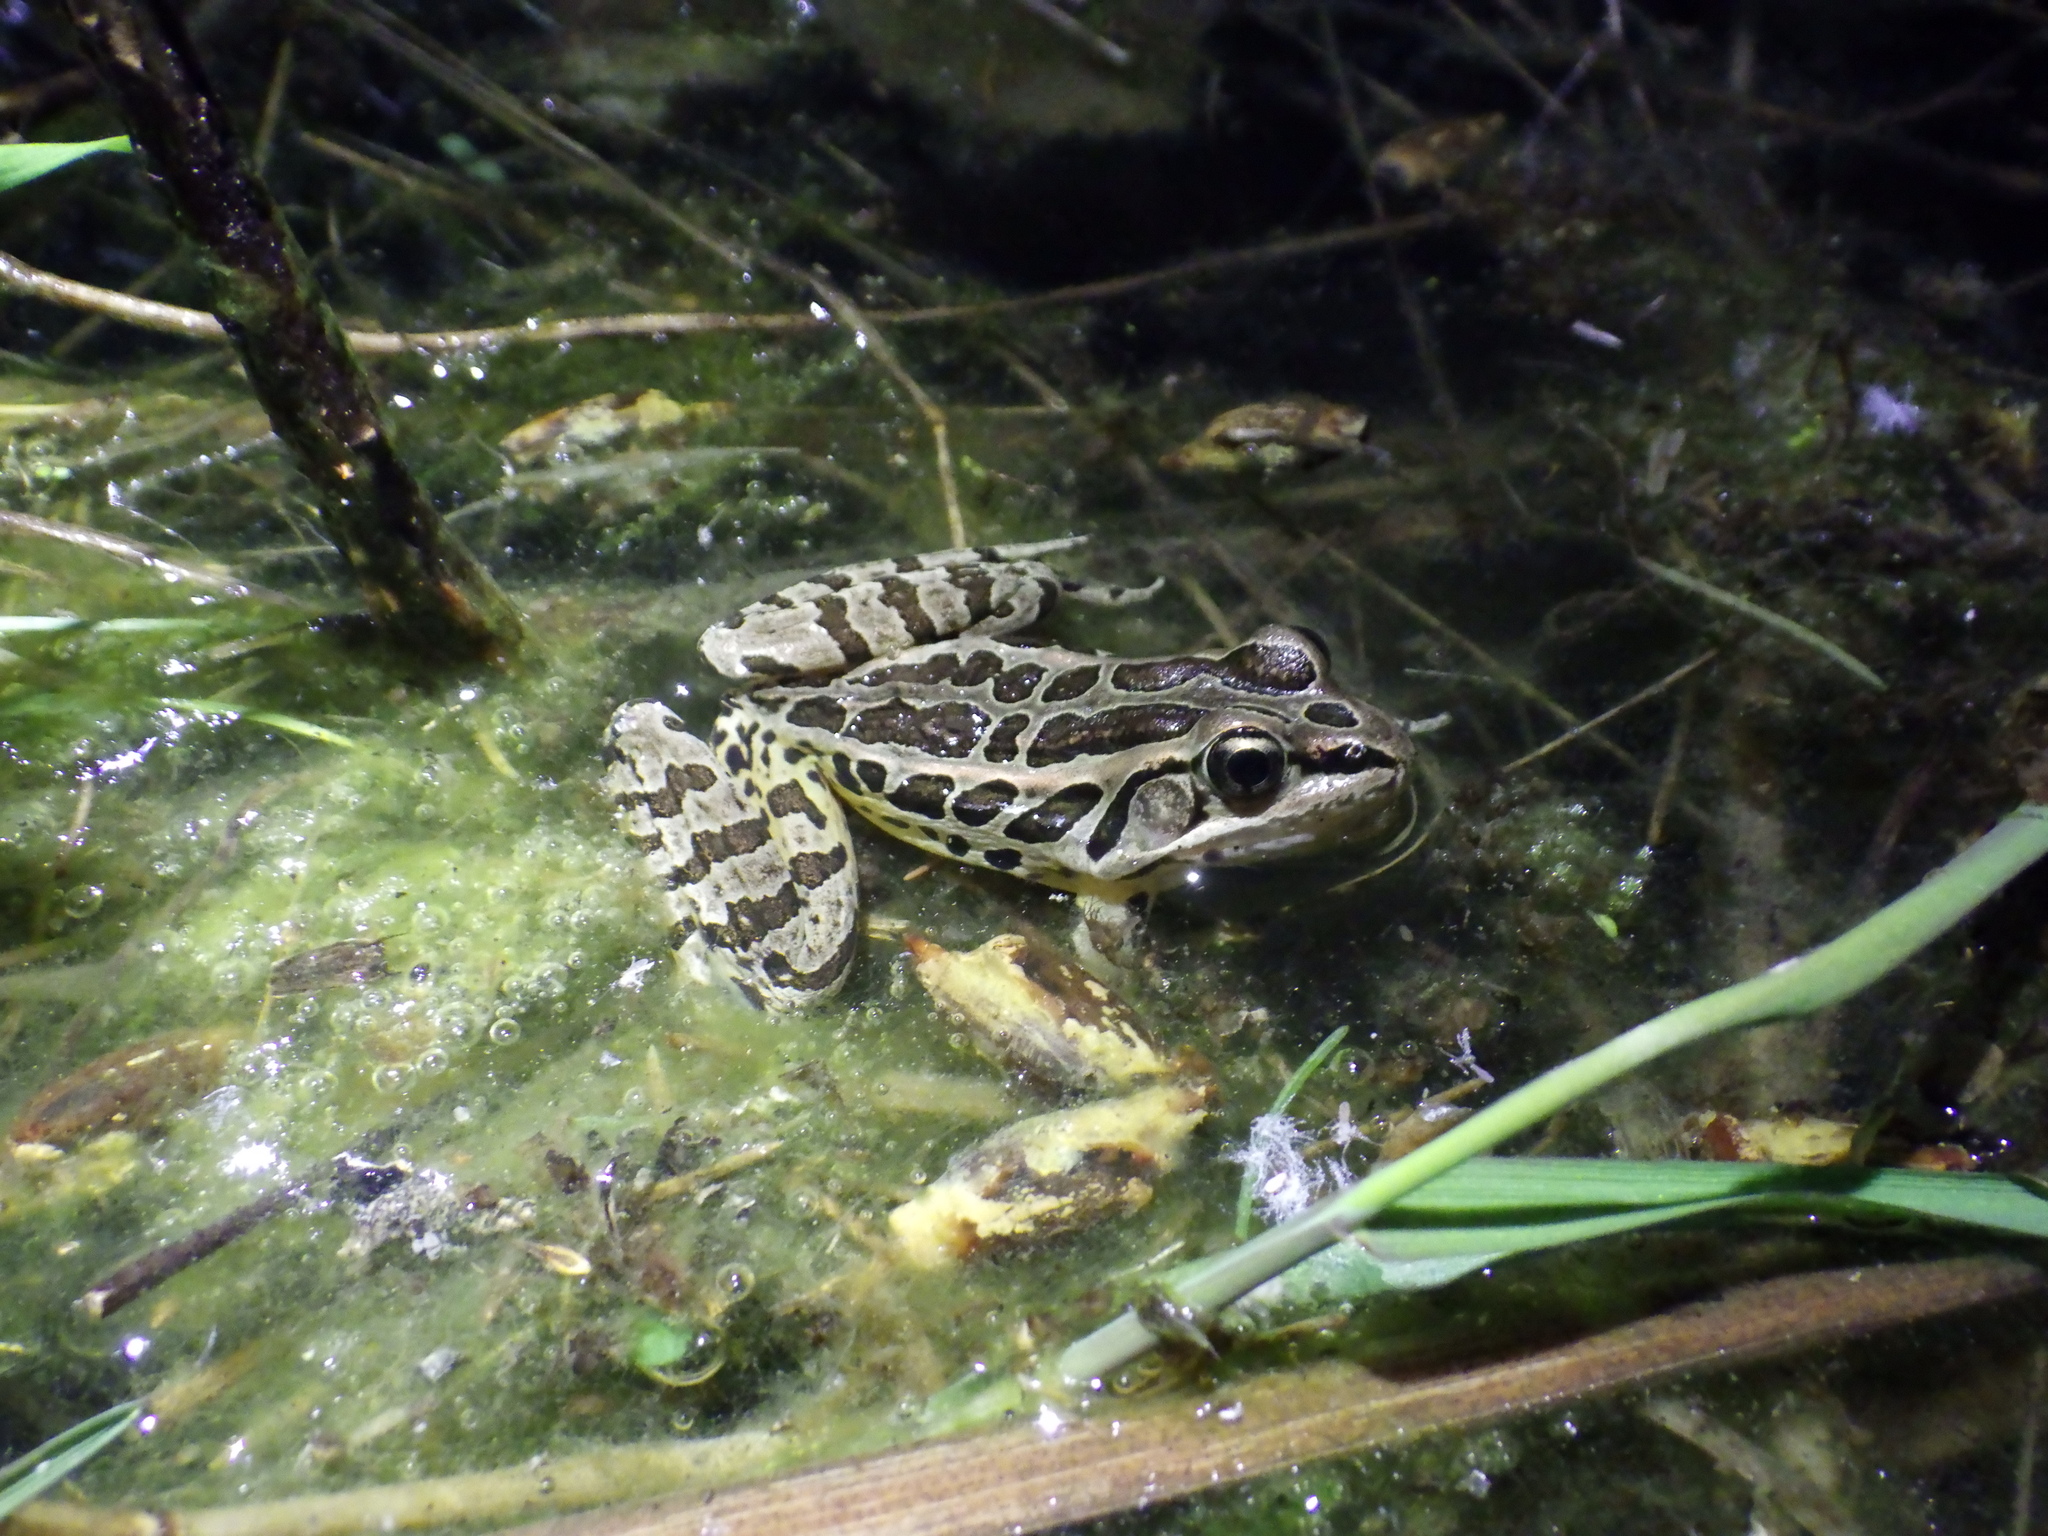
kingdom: Animalia
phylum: Chordata
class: Amphibia
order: Anura
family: Ranidae
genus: Lithobates
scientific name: Lithobates palustris
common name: Pickerel frog
